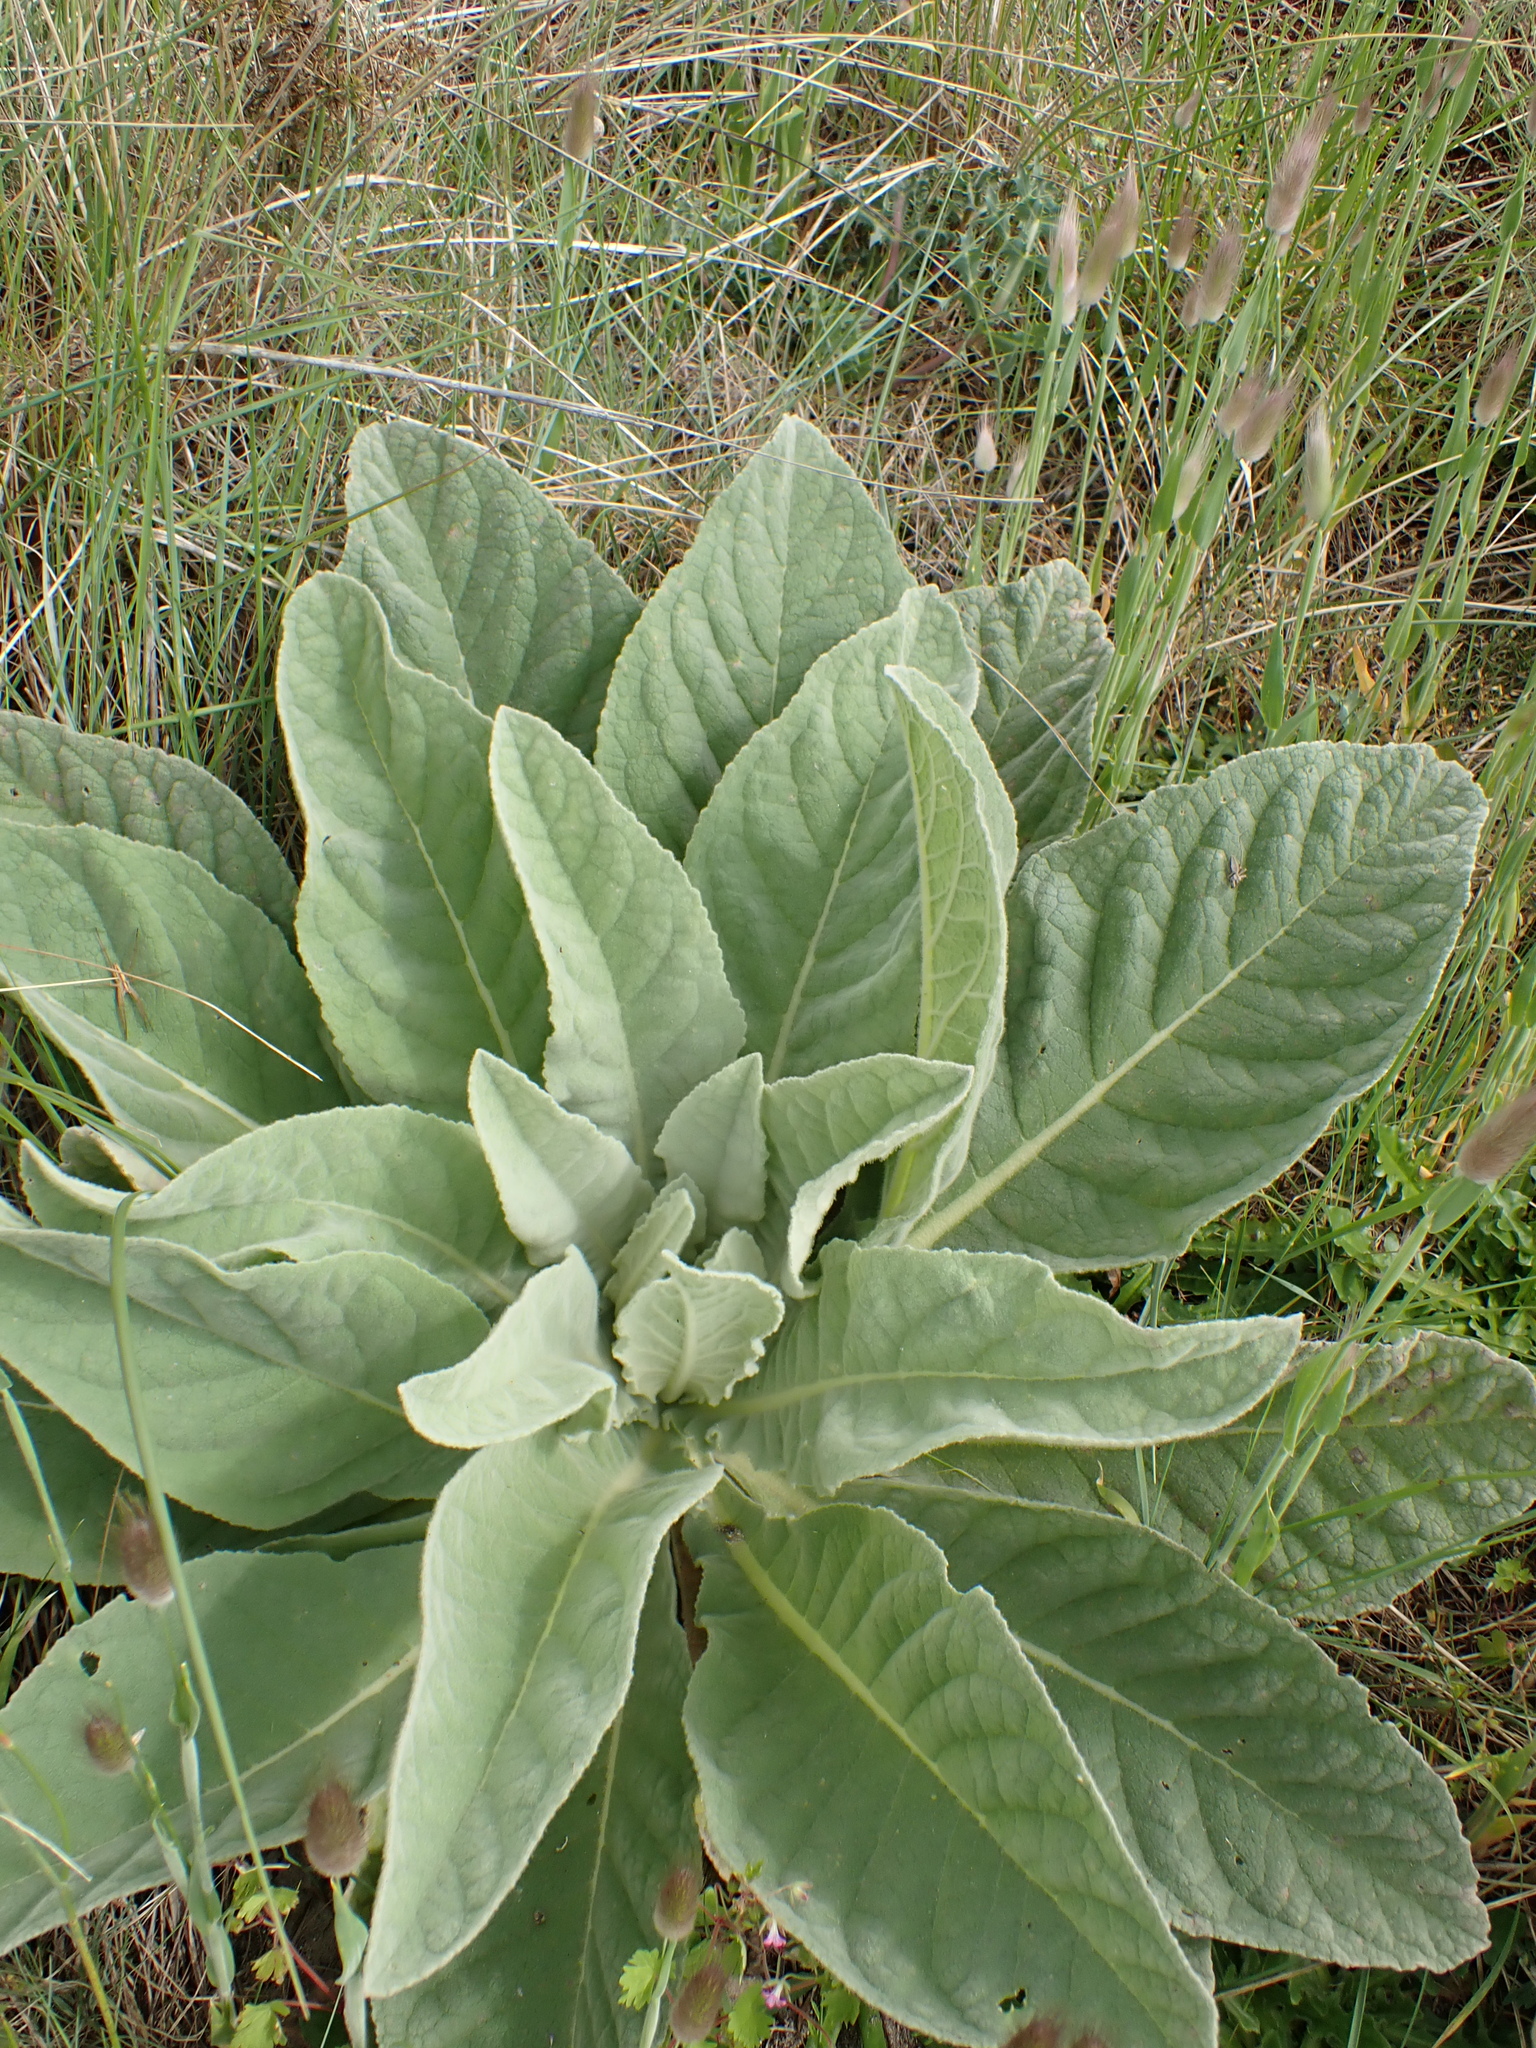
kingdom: Plantae
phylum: Tracheophyta
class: Magnoliopsida
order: Lamiales
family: Scrophulariaceae
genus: Verbascum
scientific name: Verbascum thapsus
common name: Common mullein
